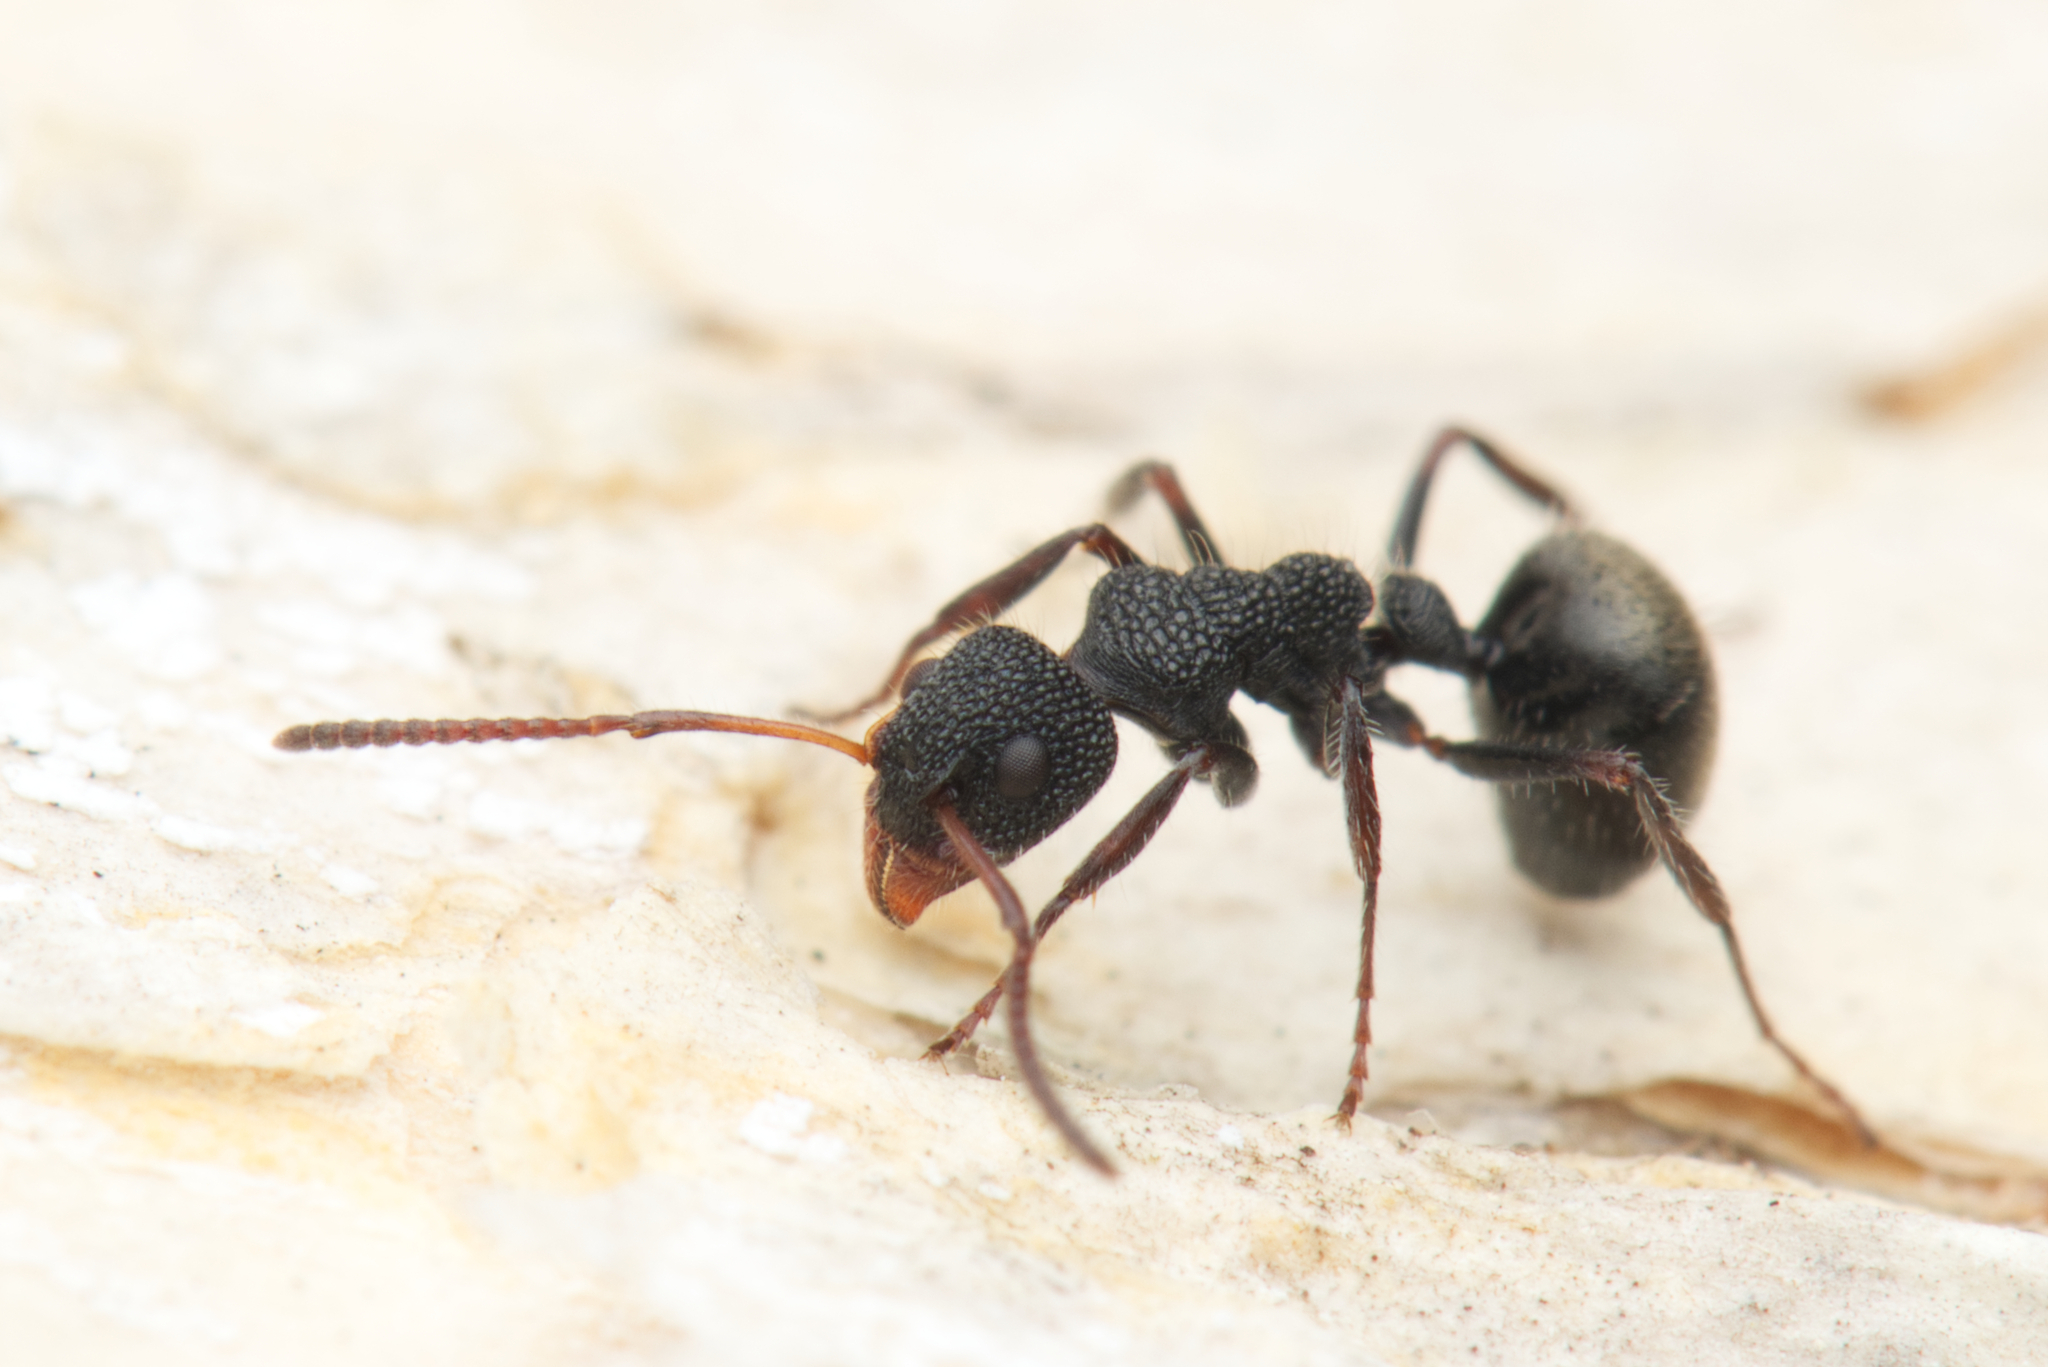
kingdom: Animalia
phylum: Arthropoda
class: Insecta
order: Hymenoptera
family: Formicidae
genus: Dolichoderus
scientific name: Dolichoderus scrobiculatus
